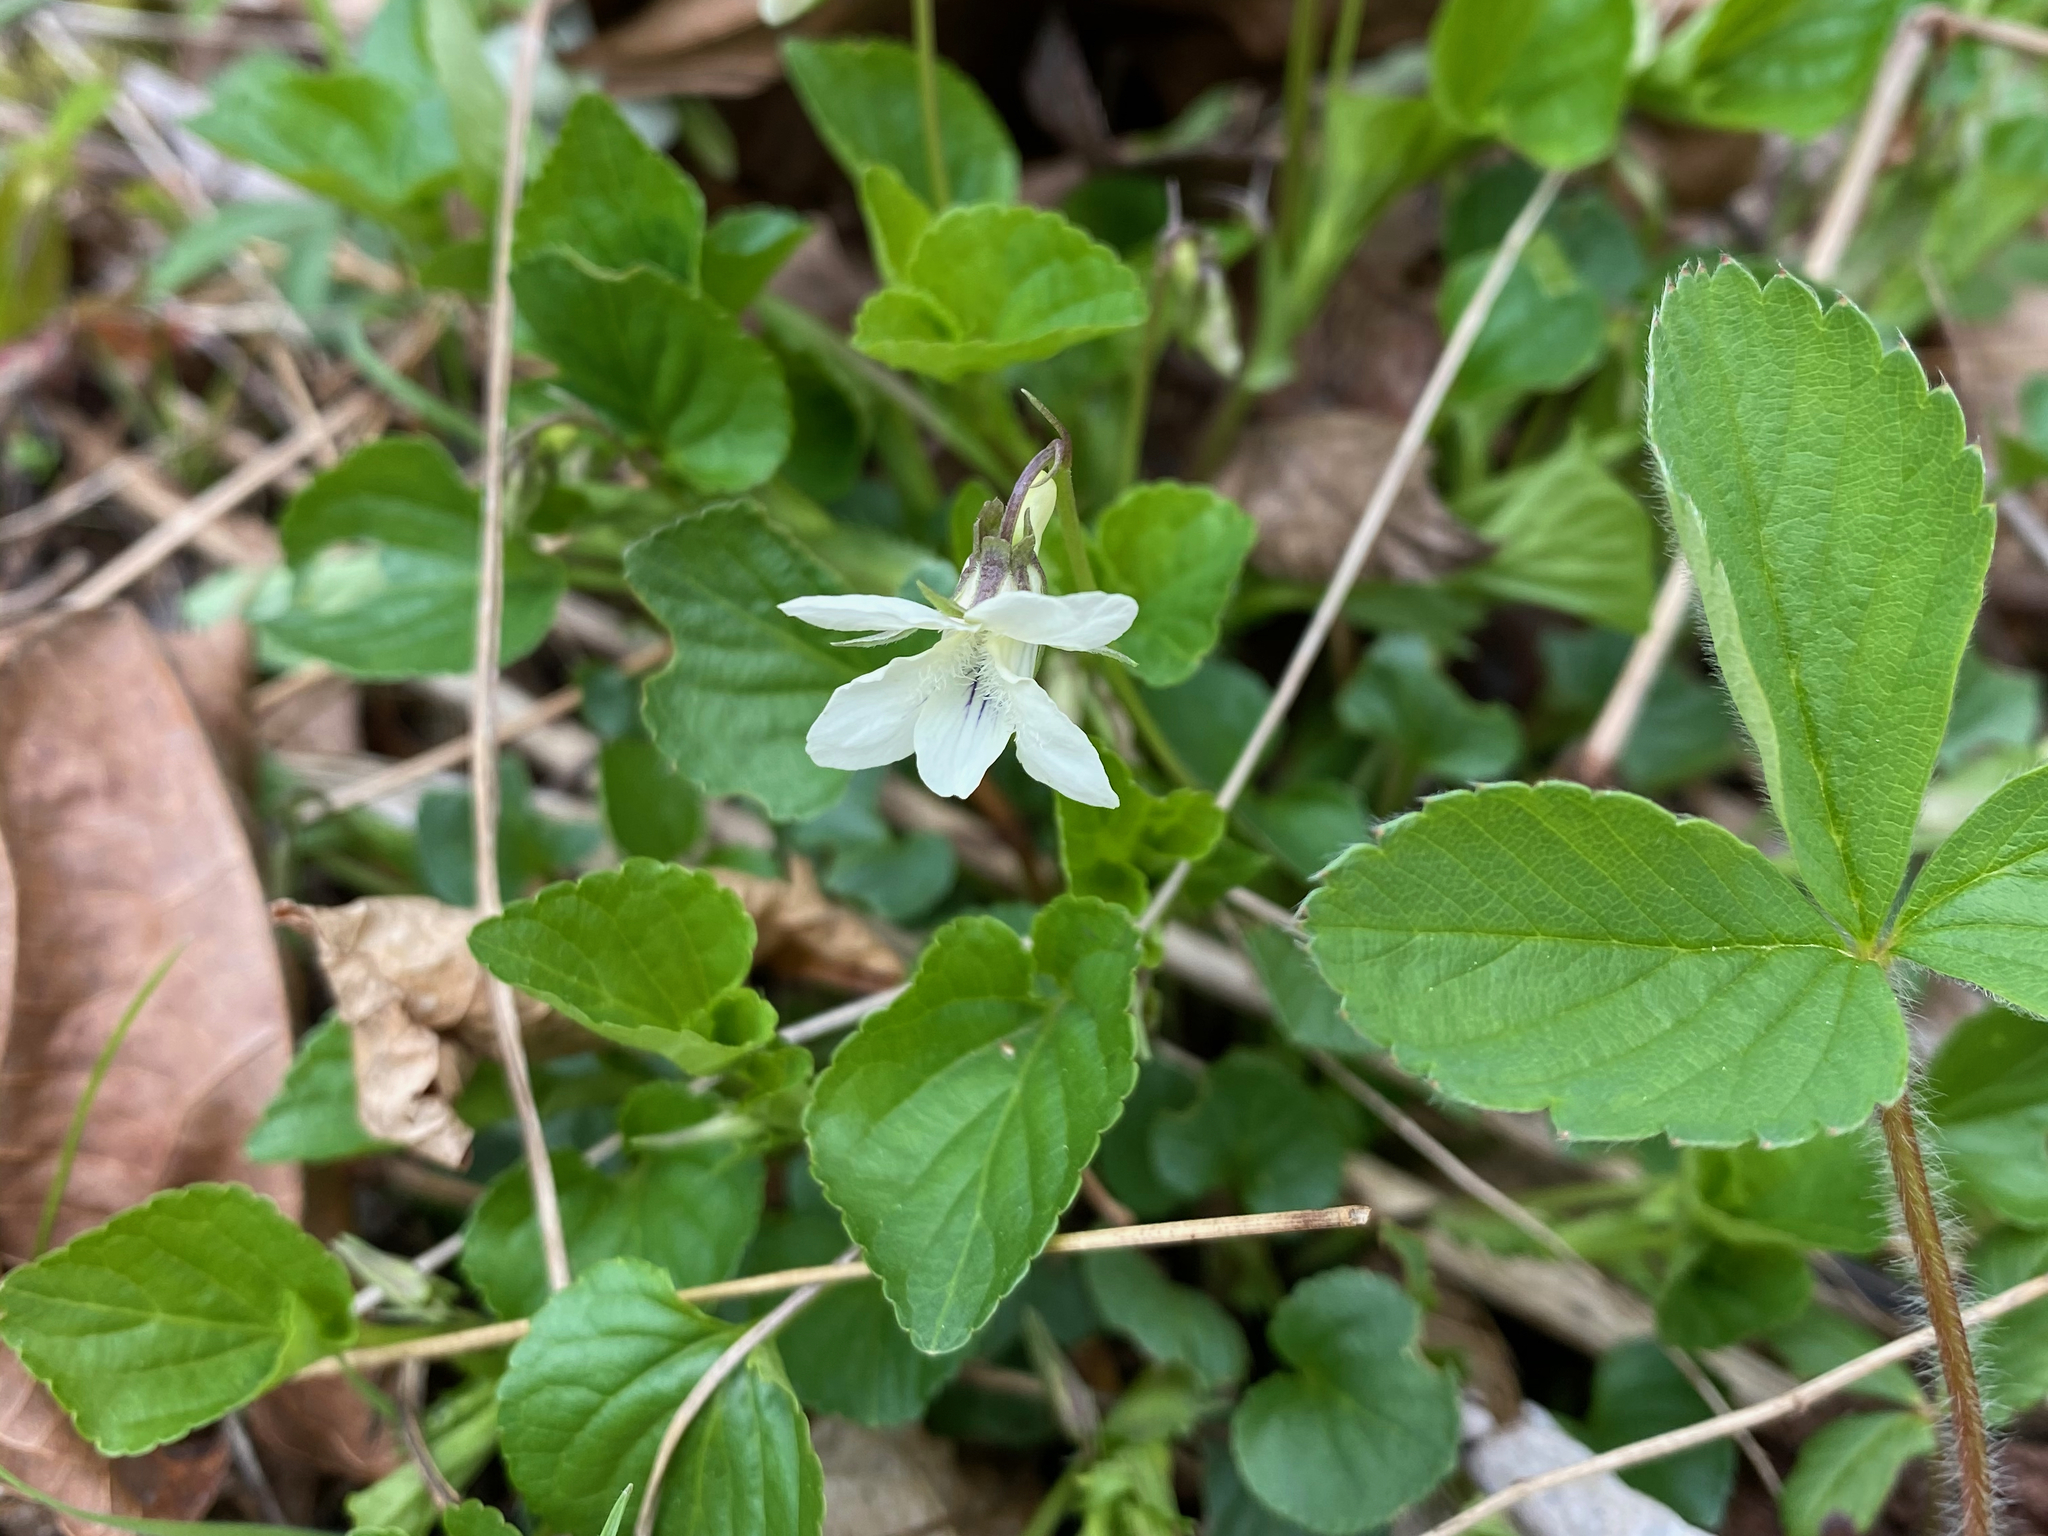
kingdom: Plantae
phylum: Tracheophyta
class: Magnoliopsida
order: Malpighiales
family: Violaceae
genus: Viola
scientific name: Viola striata
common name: Cream violet
